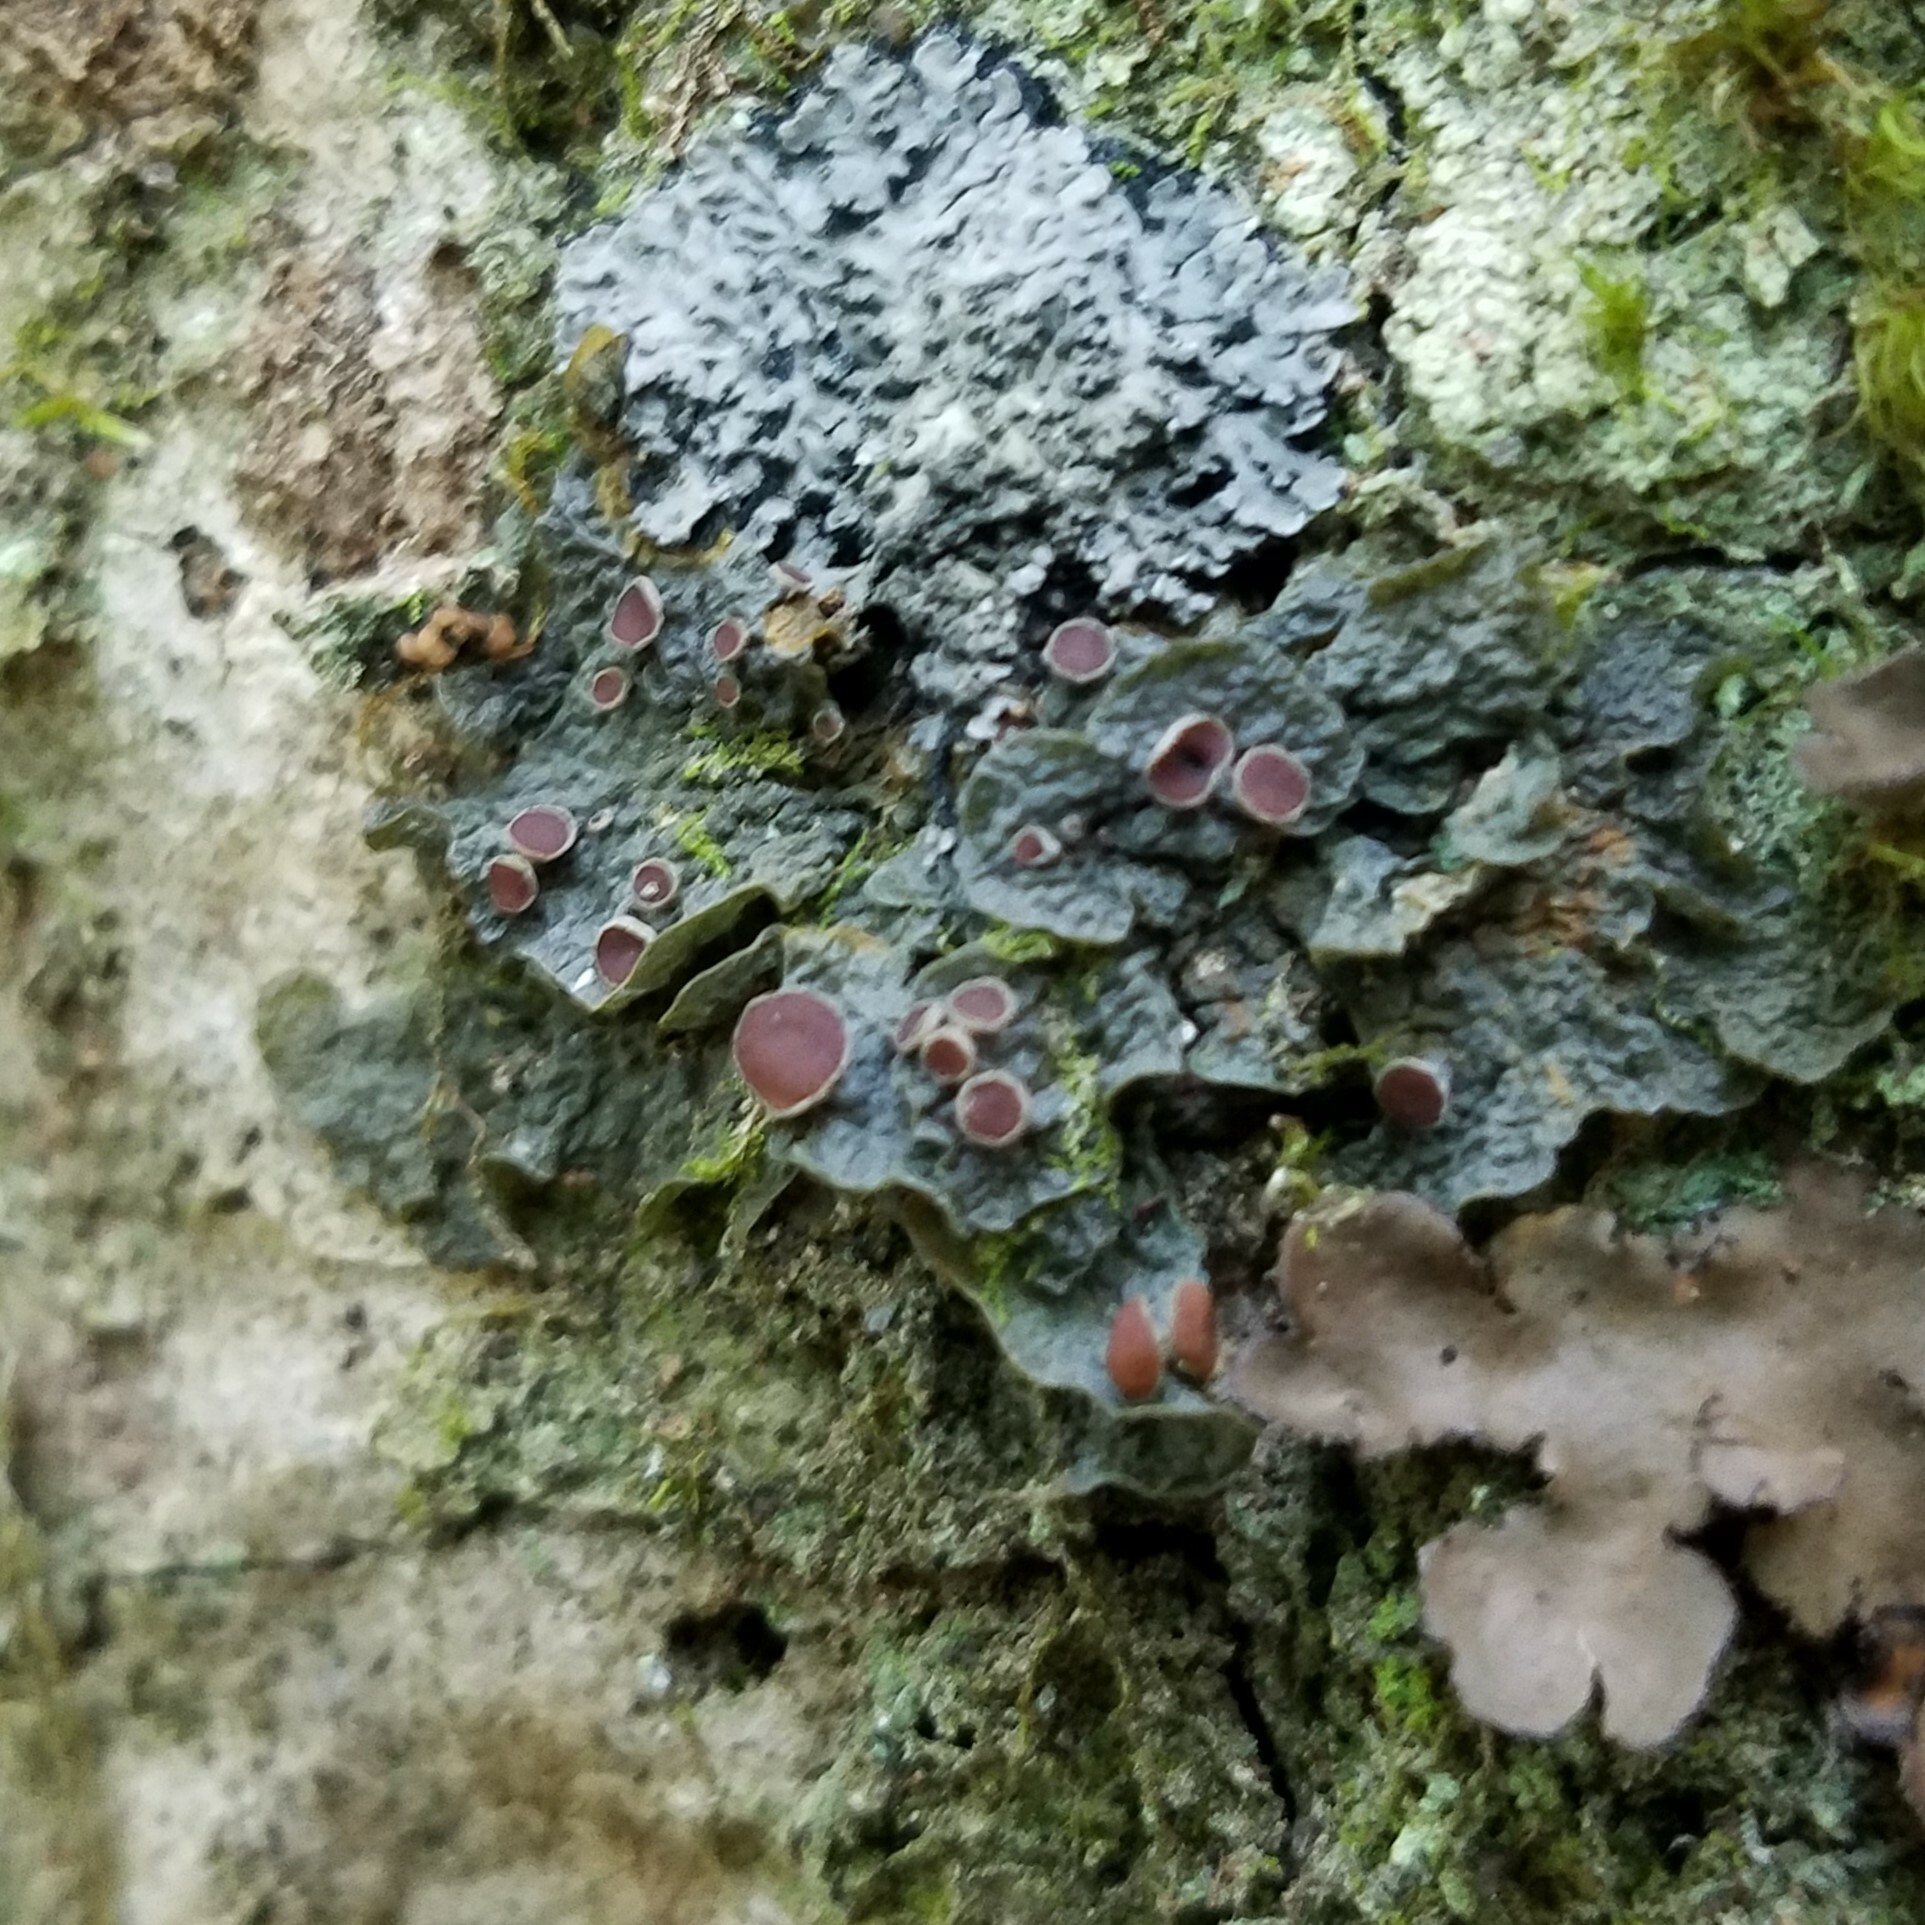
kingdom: Fungi
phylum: Ascomycota
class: Lecanoromycetes
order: Peltigerales
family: Collemataceae
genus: Leptogium
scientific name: Leptogium corticola
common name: Blistered jellyskin lichen
